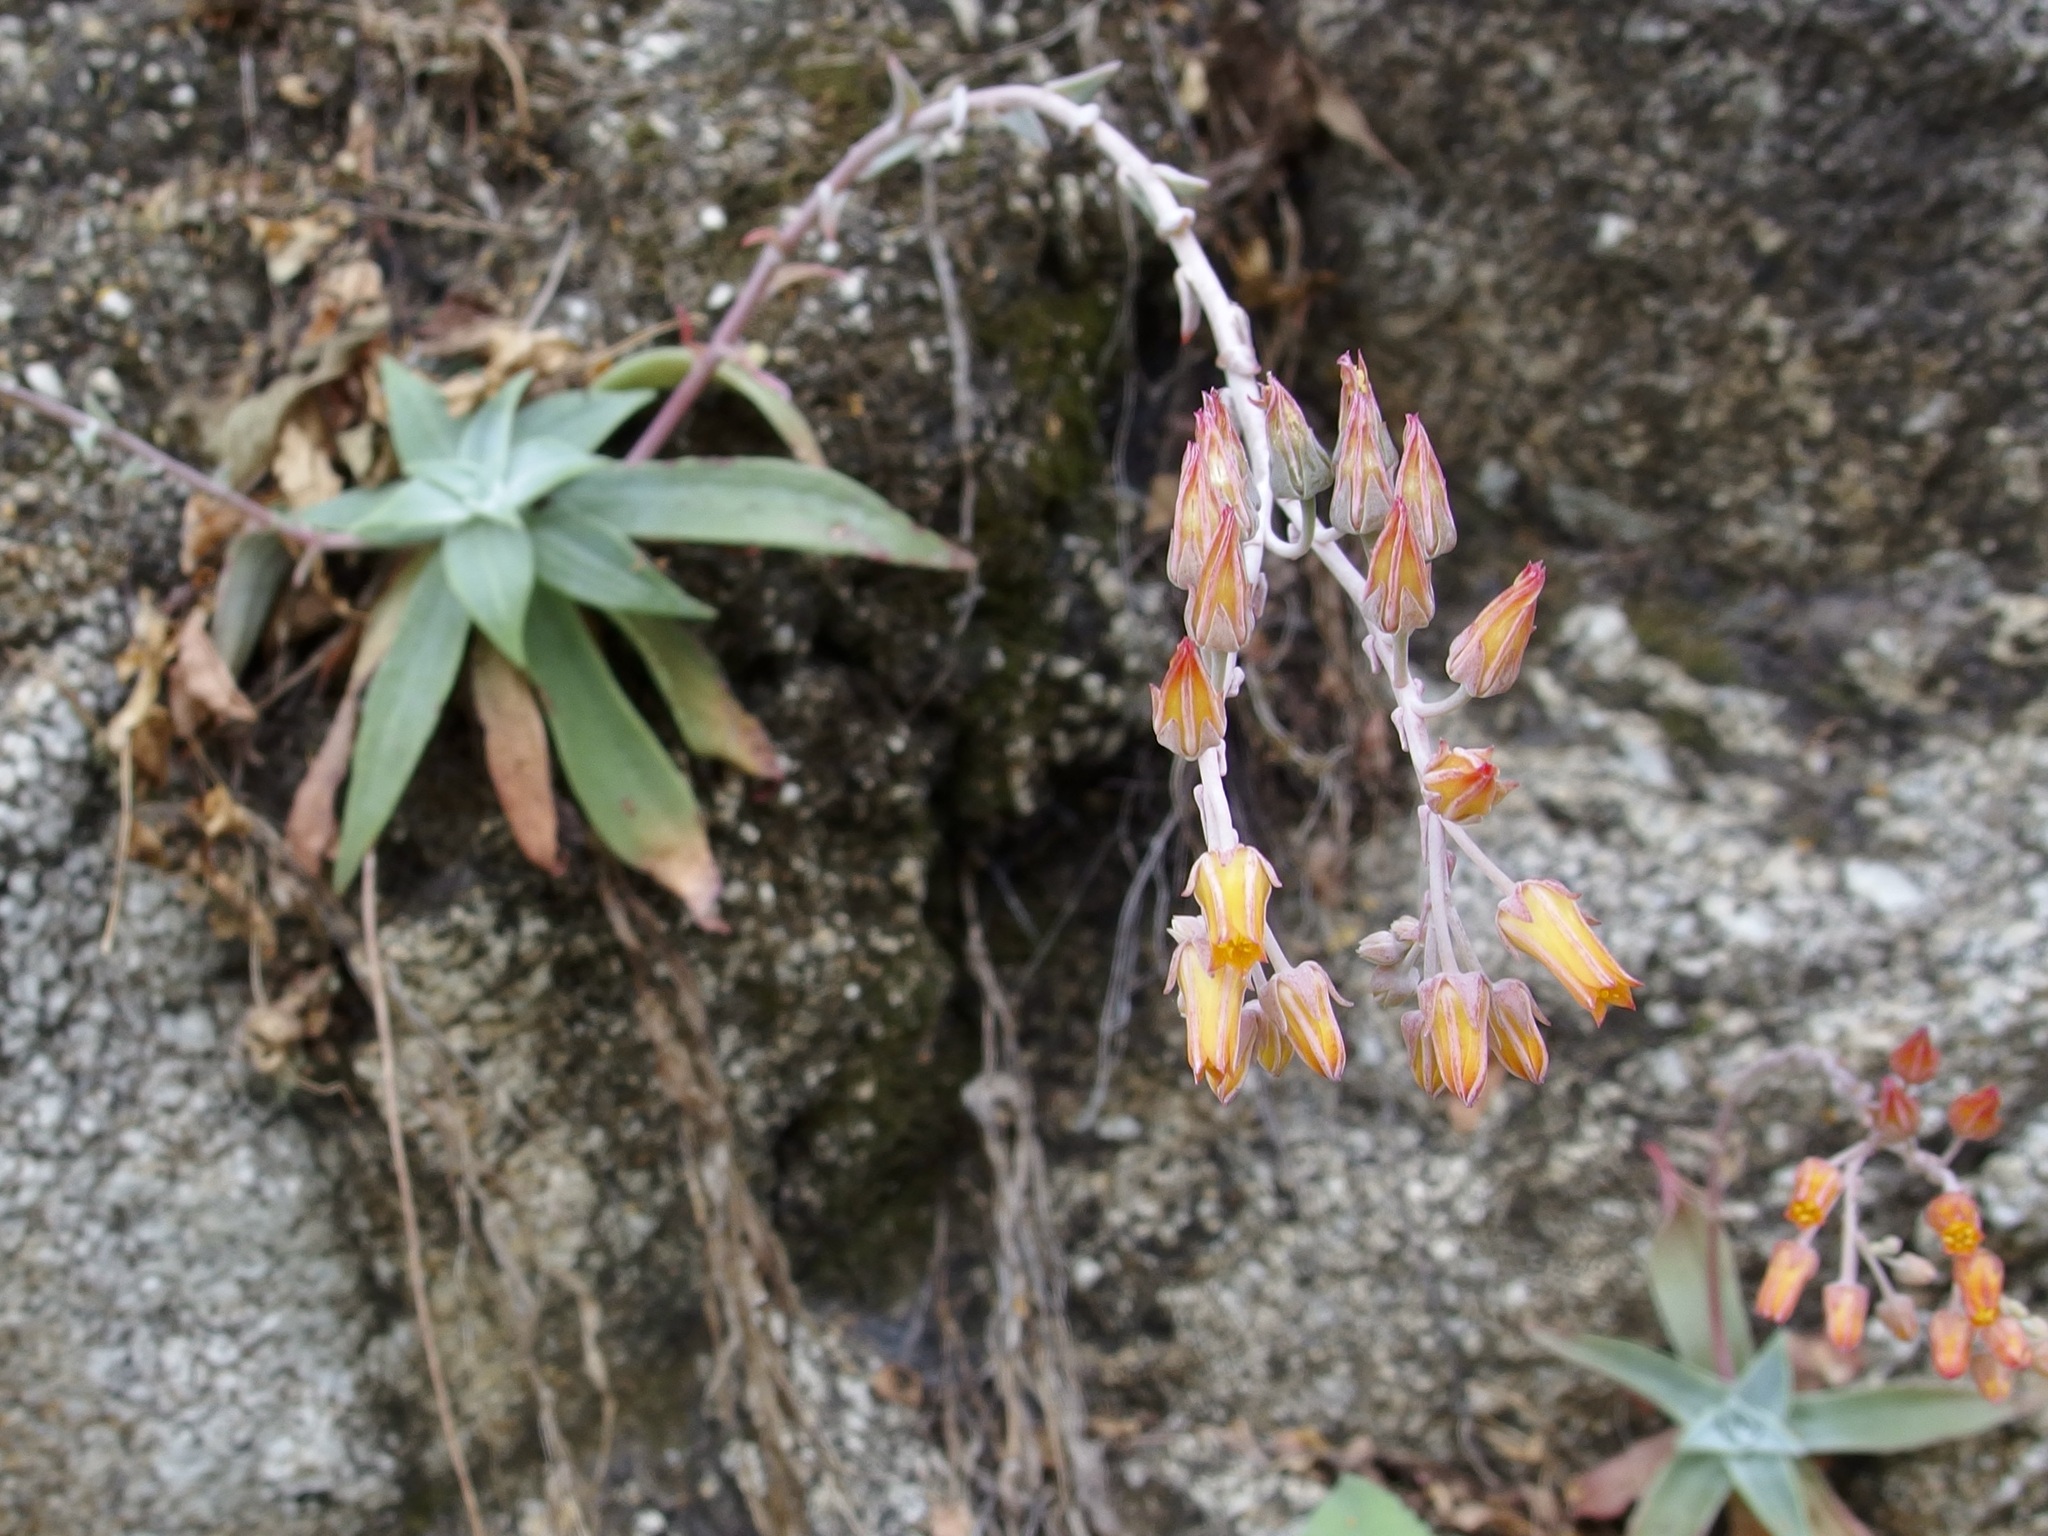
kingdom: Plantae
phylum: Tracheophyta
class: Magnoliopsida
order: Saxifragales
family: Crassulaceae
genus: Dudleya
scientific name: Dudleya nubigena
